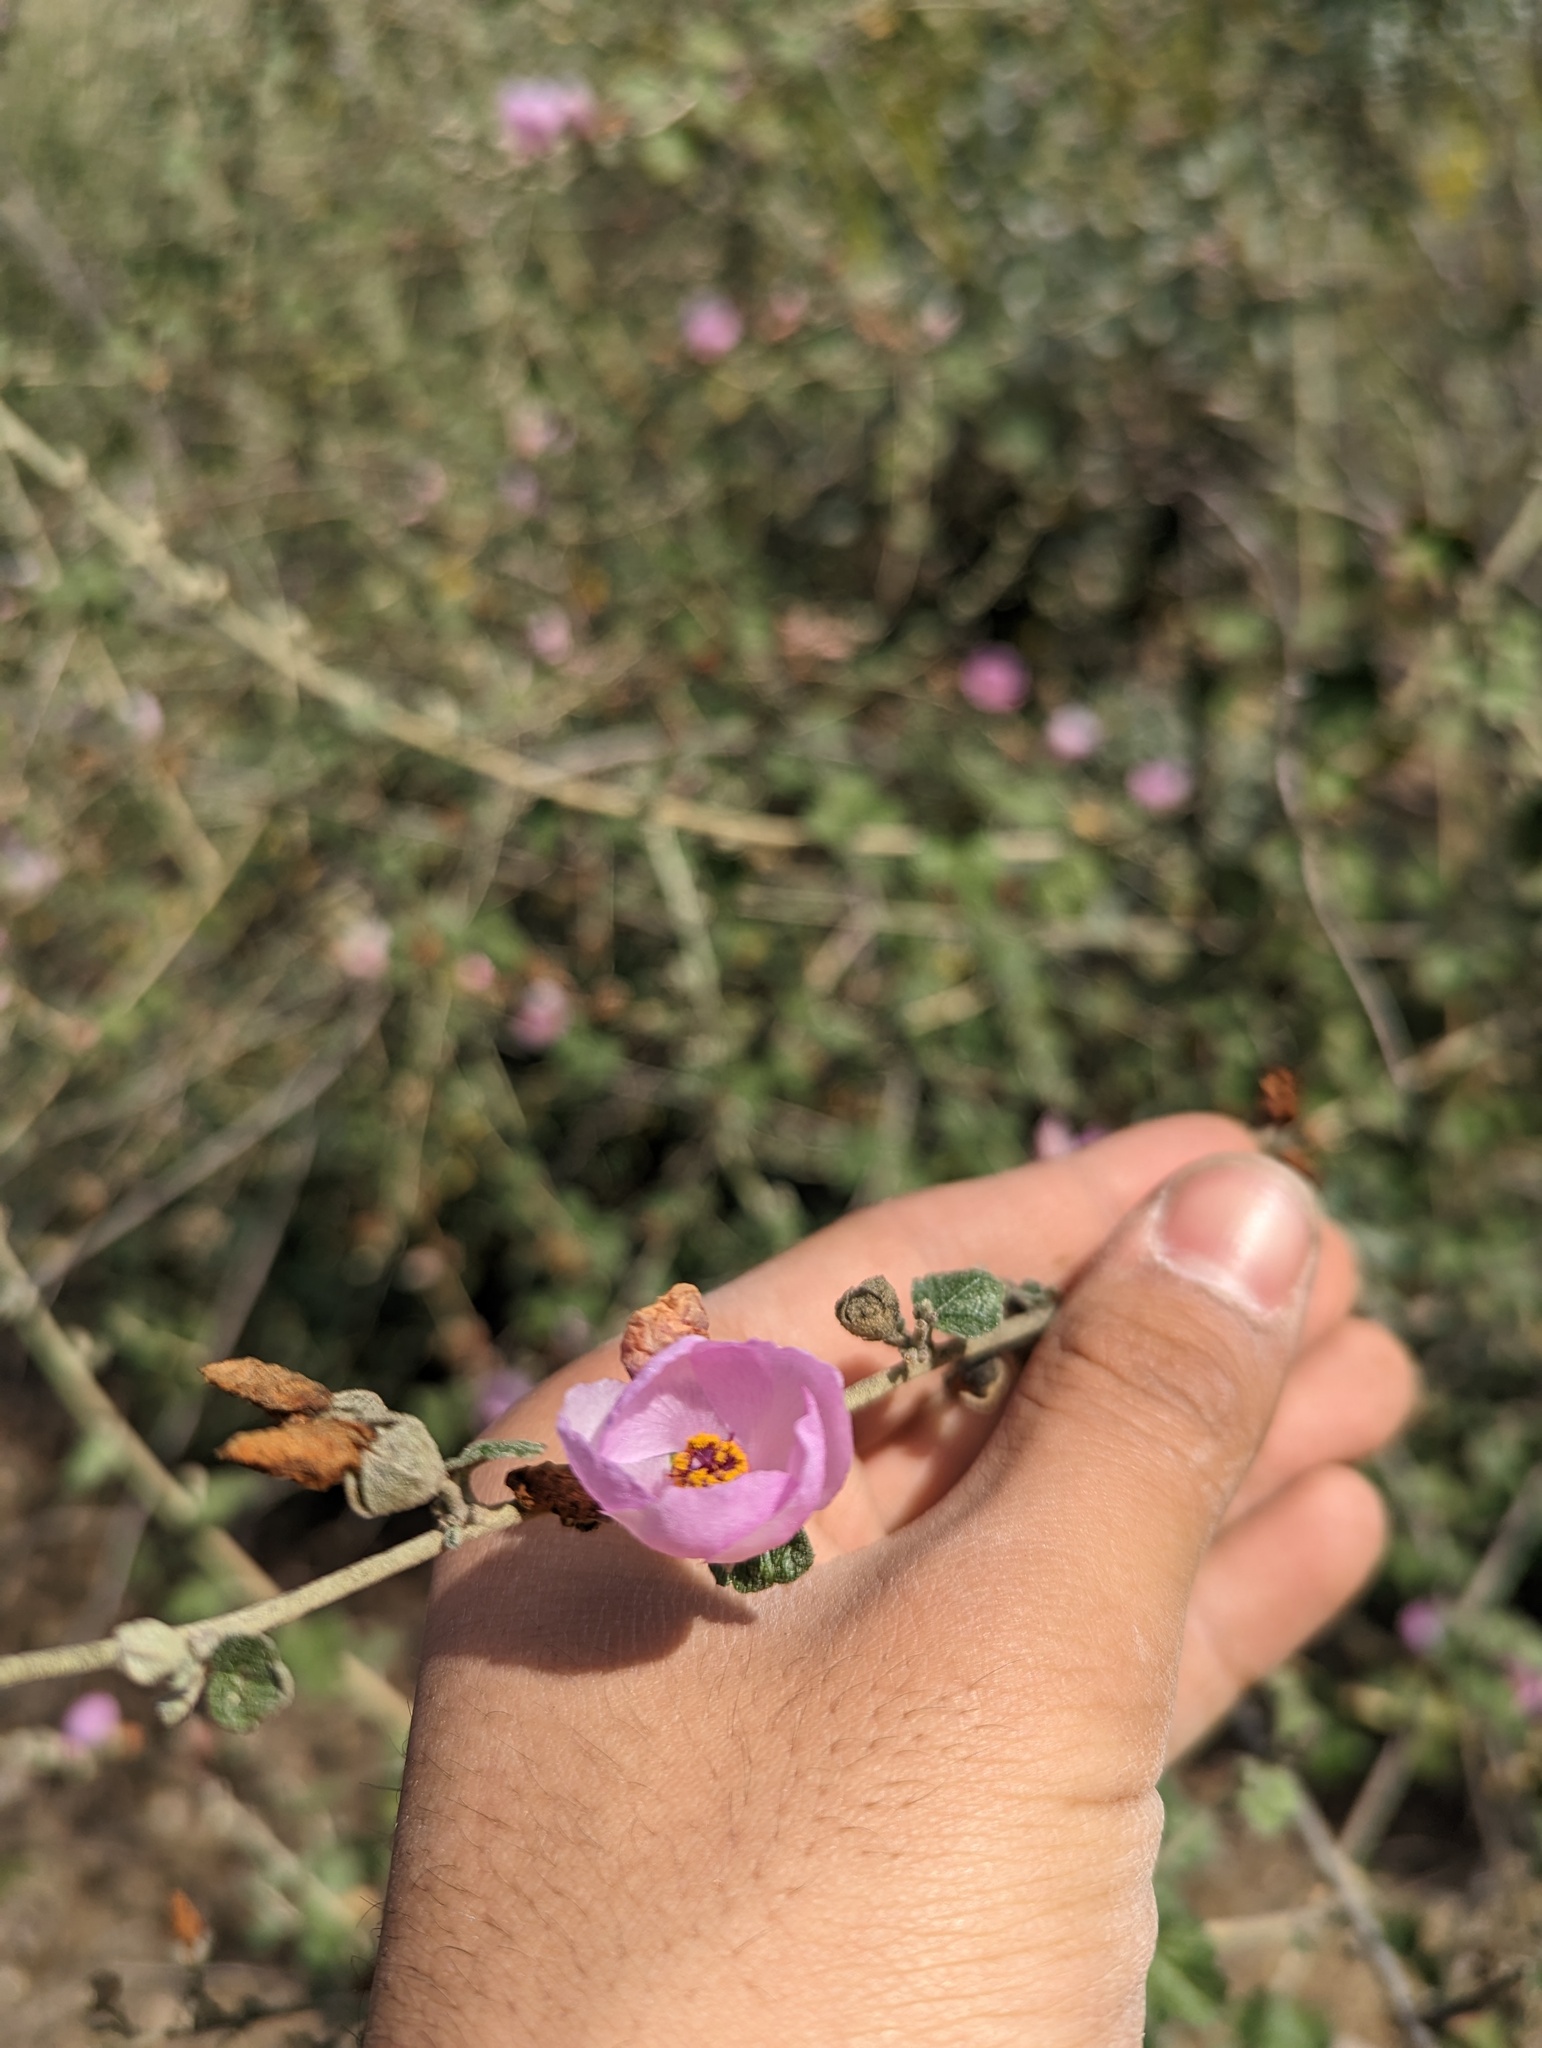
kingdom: Plantae
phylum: Tracheophyta
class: Magnoliopsida
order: Malvales
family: Malvaceae
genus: Malacothamnus
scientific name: Malacothamnus fasciculatus
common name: Sant cruz island bush-mallow
